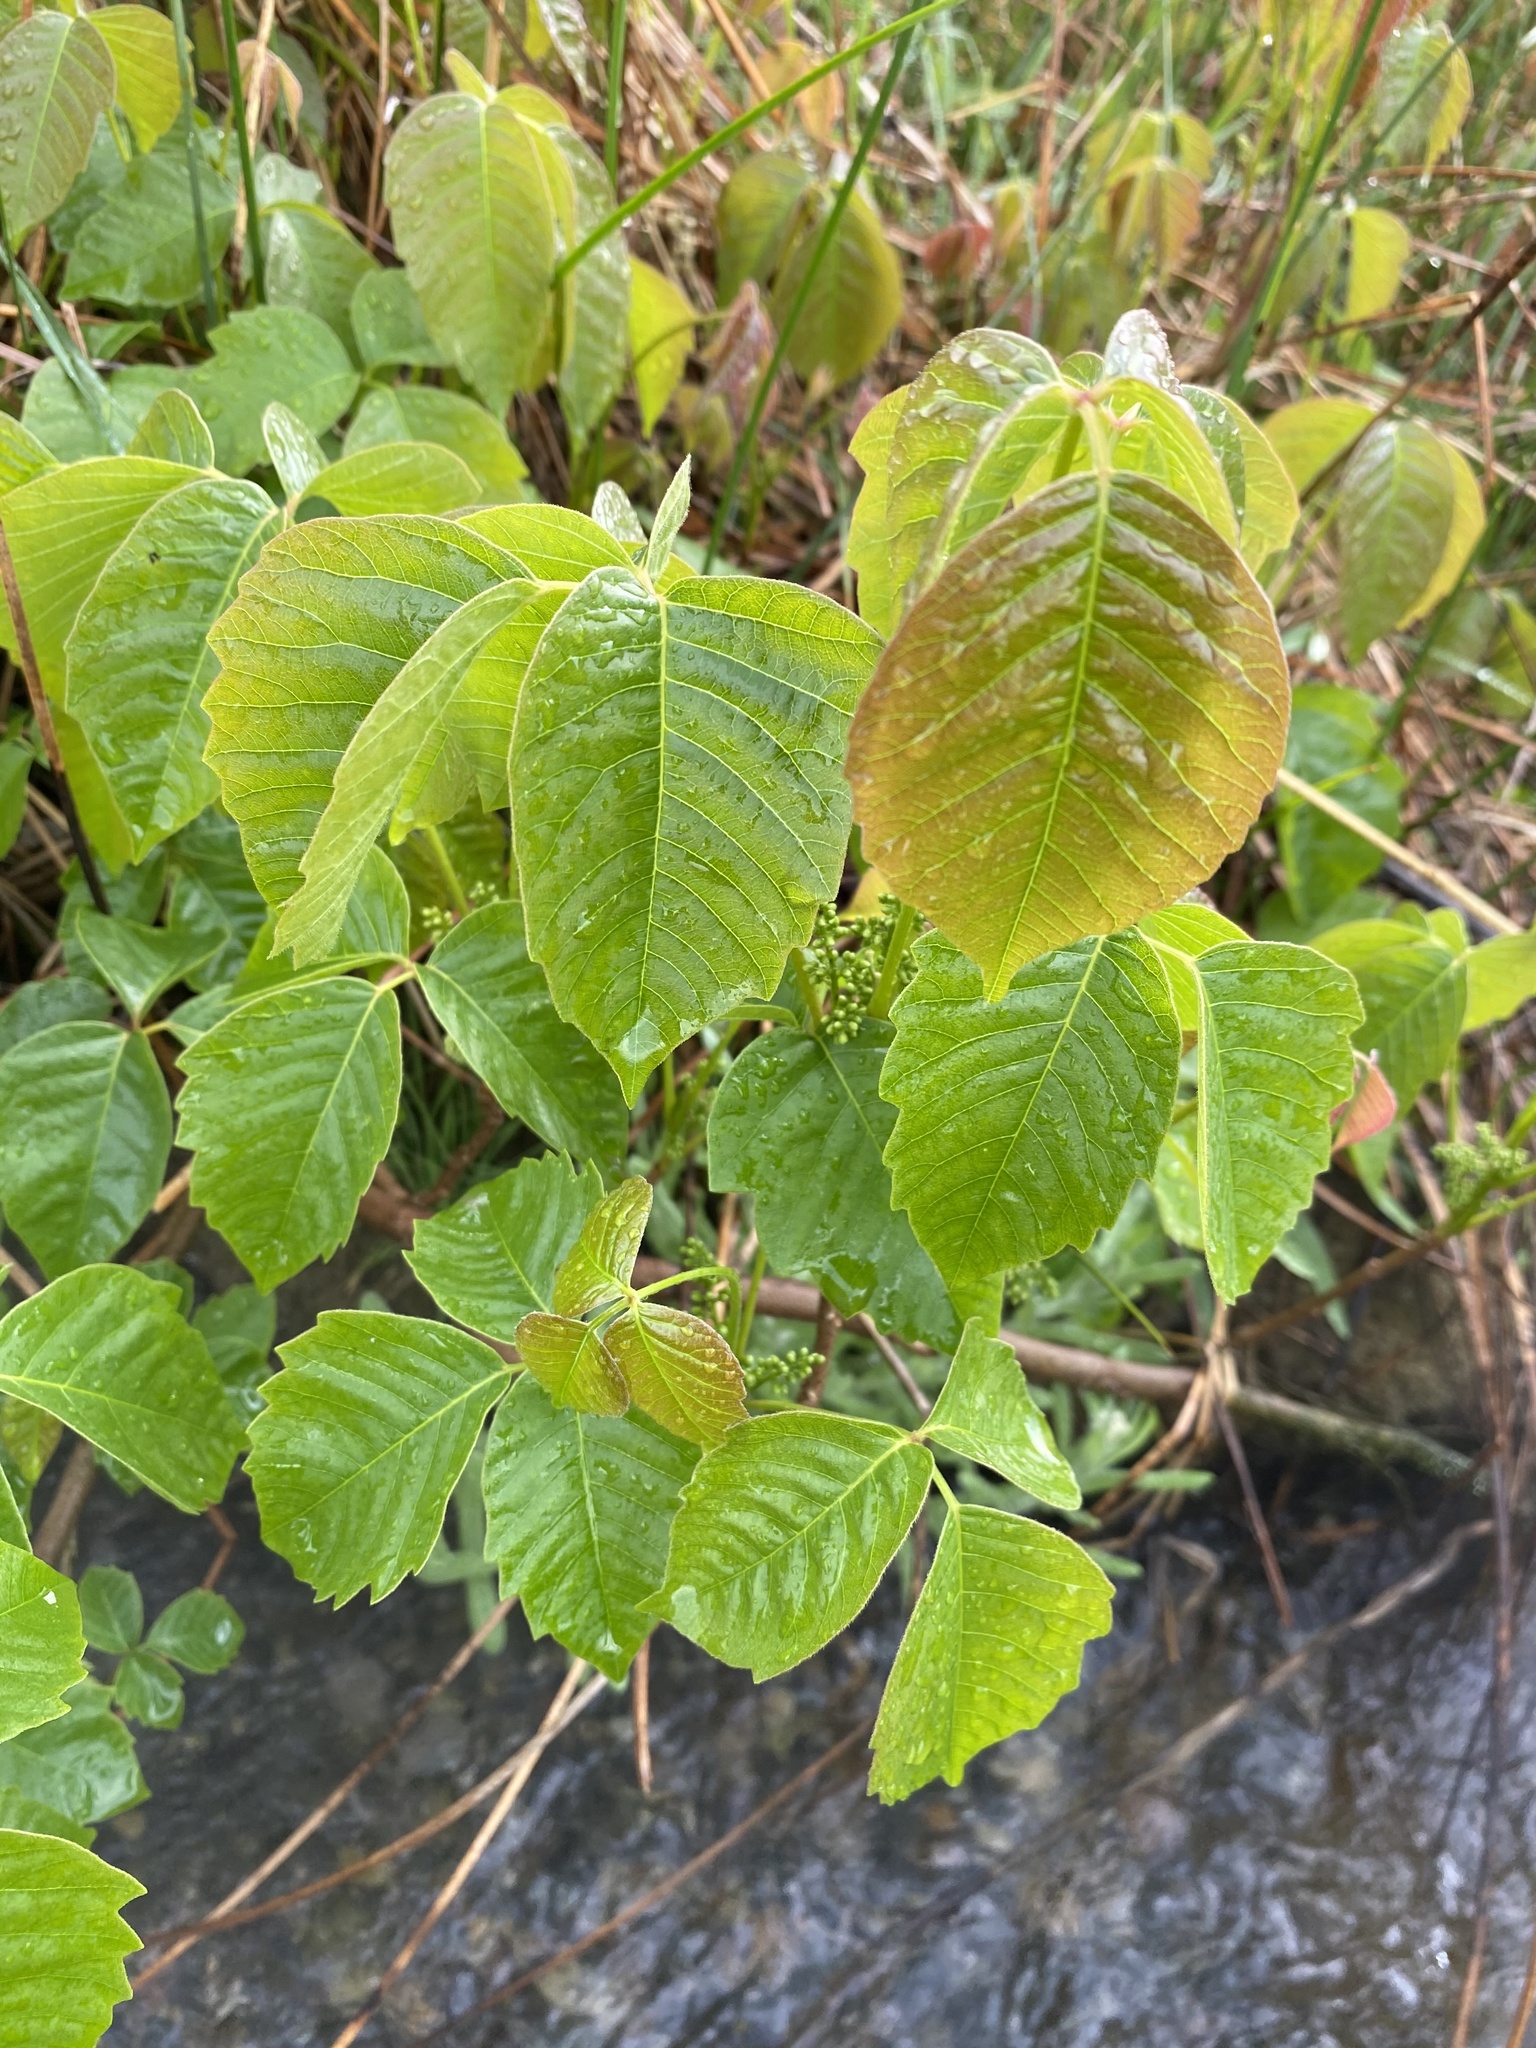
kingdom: Plantae
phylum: Tracheophyta
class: Magnoliopsida
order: Sapindales
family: Anacardiaceae
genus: Toxicodendron
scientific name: Toxicodendron rydbergii
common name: Rydberg's poison-ivy
